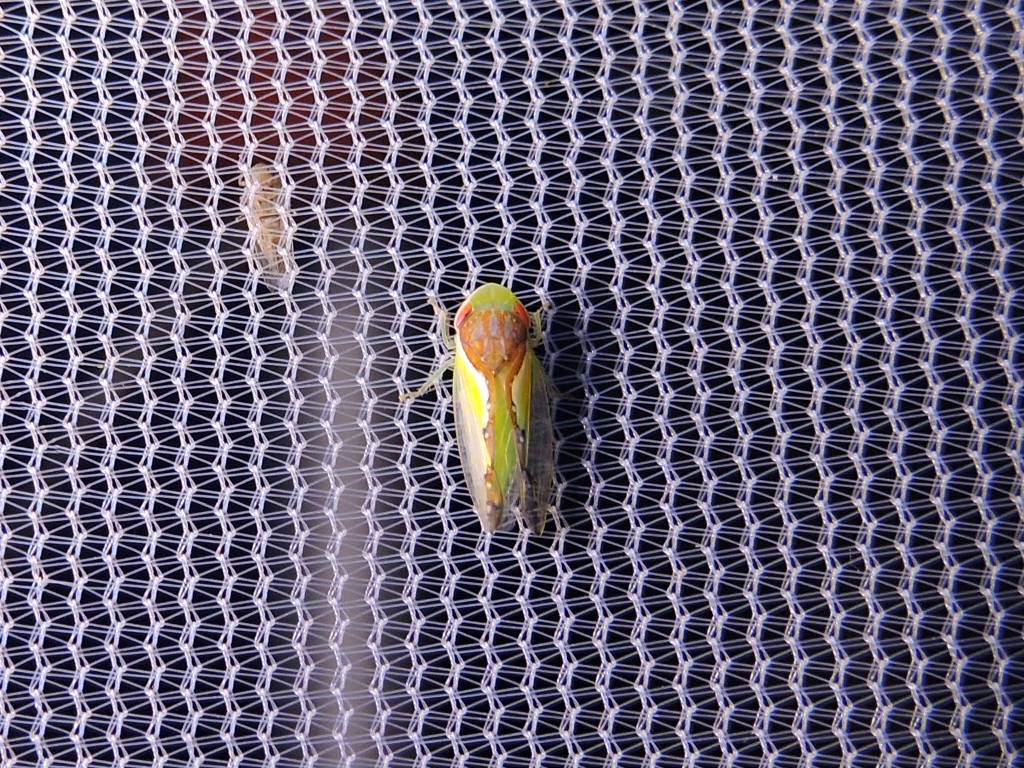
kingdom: Animalia
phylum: Arthropoda
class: Insecta
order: Hemiptera
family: Cicadellidae
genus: Omansobara ing
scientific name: Omansobara ing Omansobara palliolata
